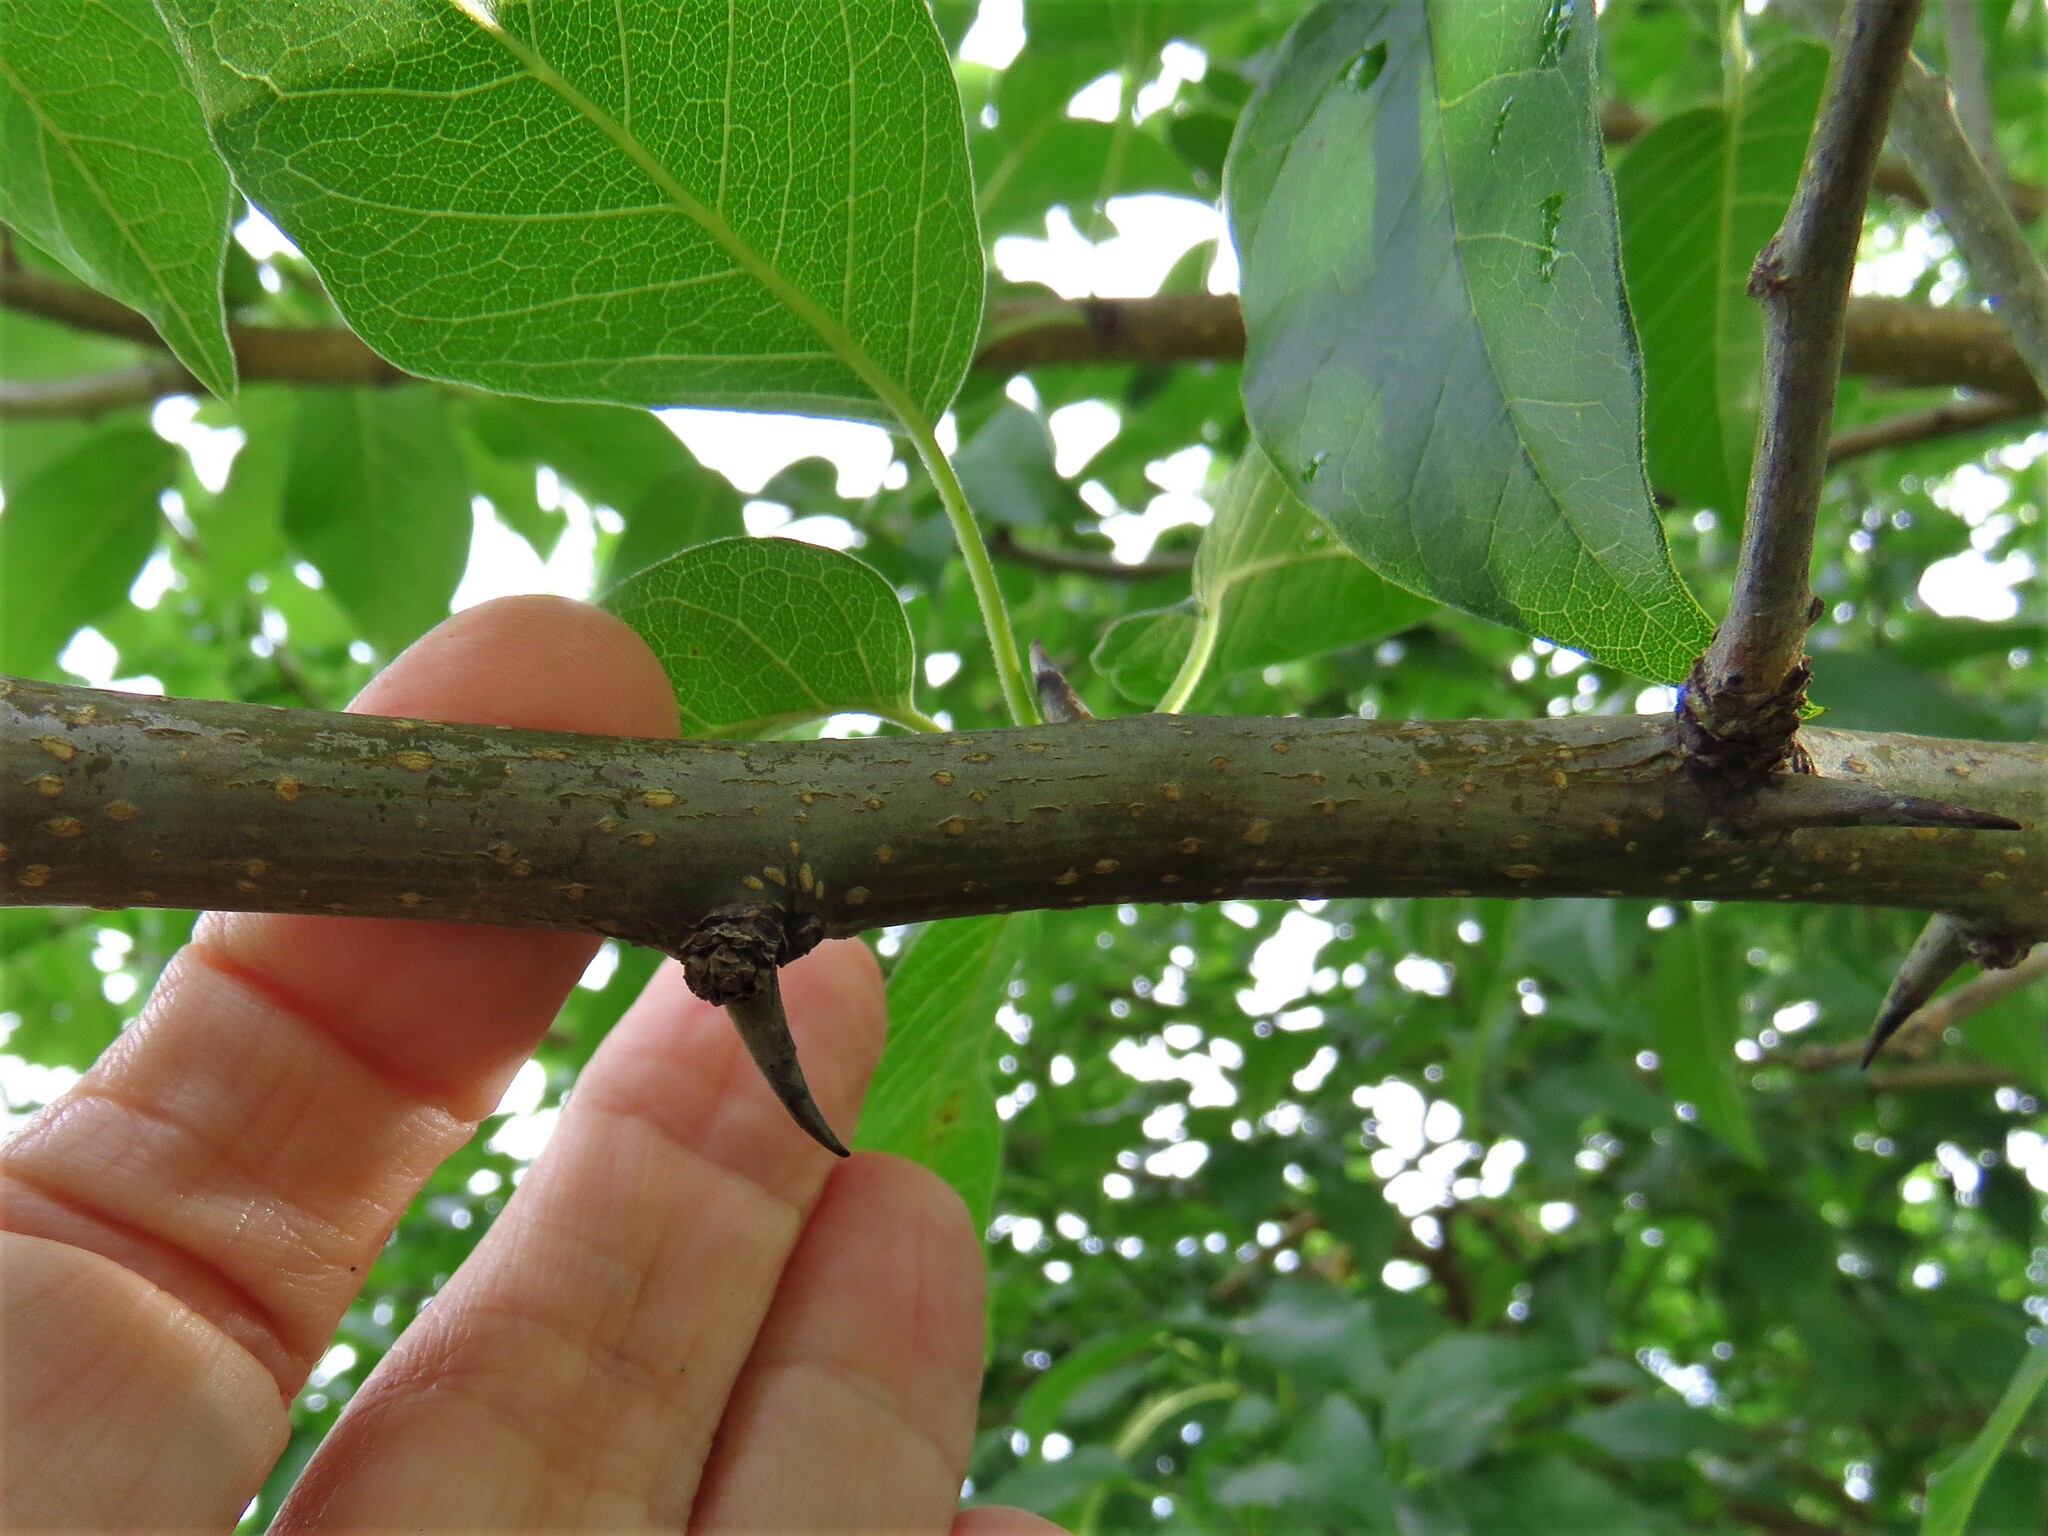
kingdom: Plantae
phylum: Tracheophyta
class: Magnoliopsida
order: Rosales
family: Moraceae
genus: Maclura
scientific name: Maclura pomifera
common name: Osage-orange
